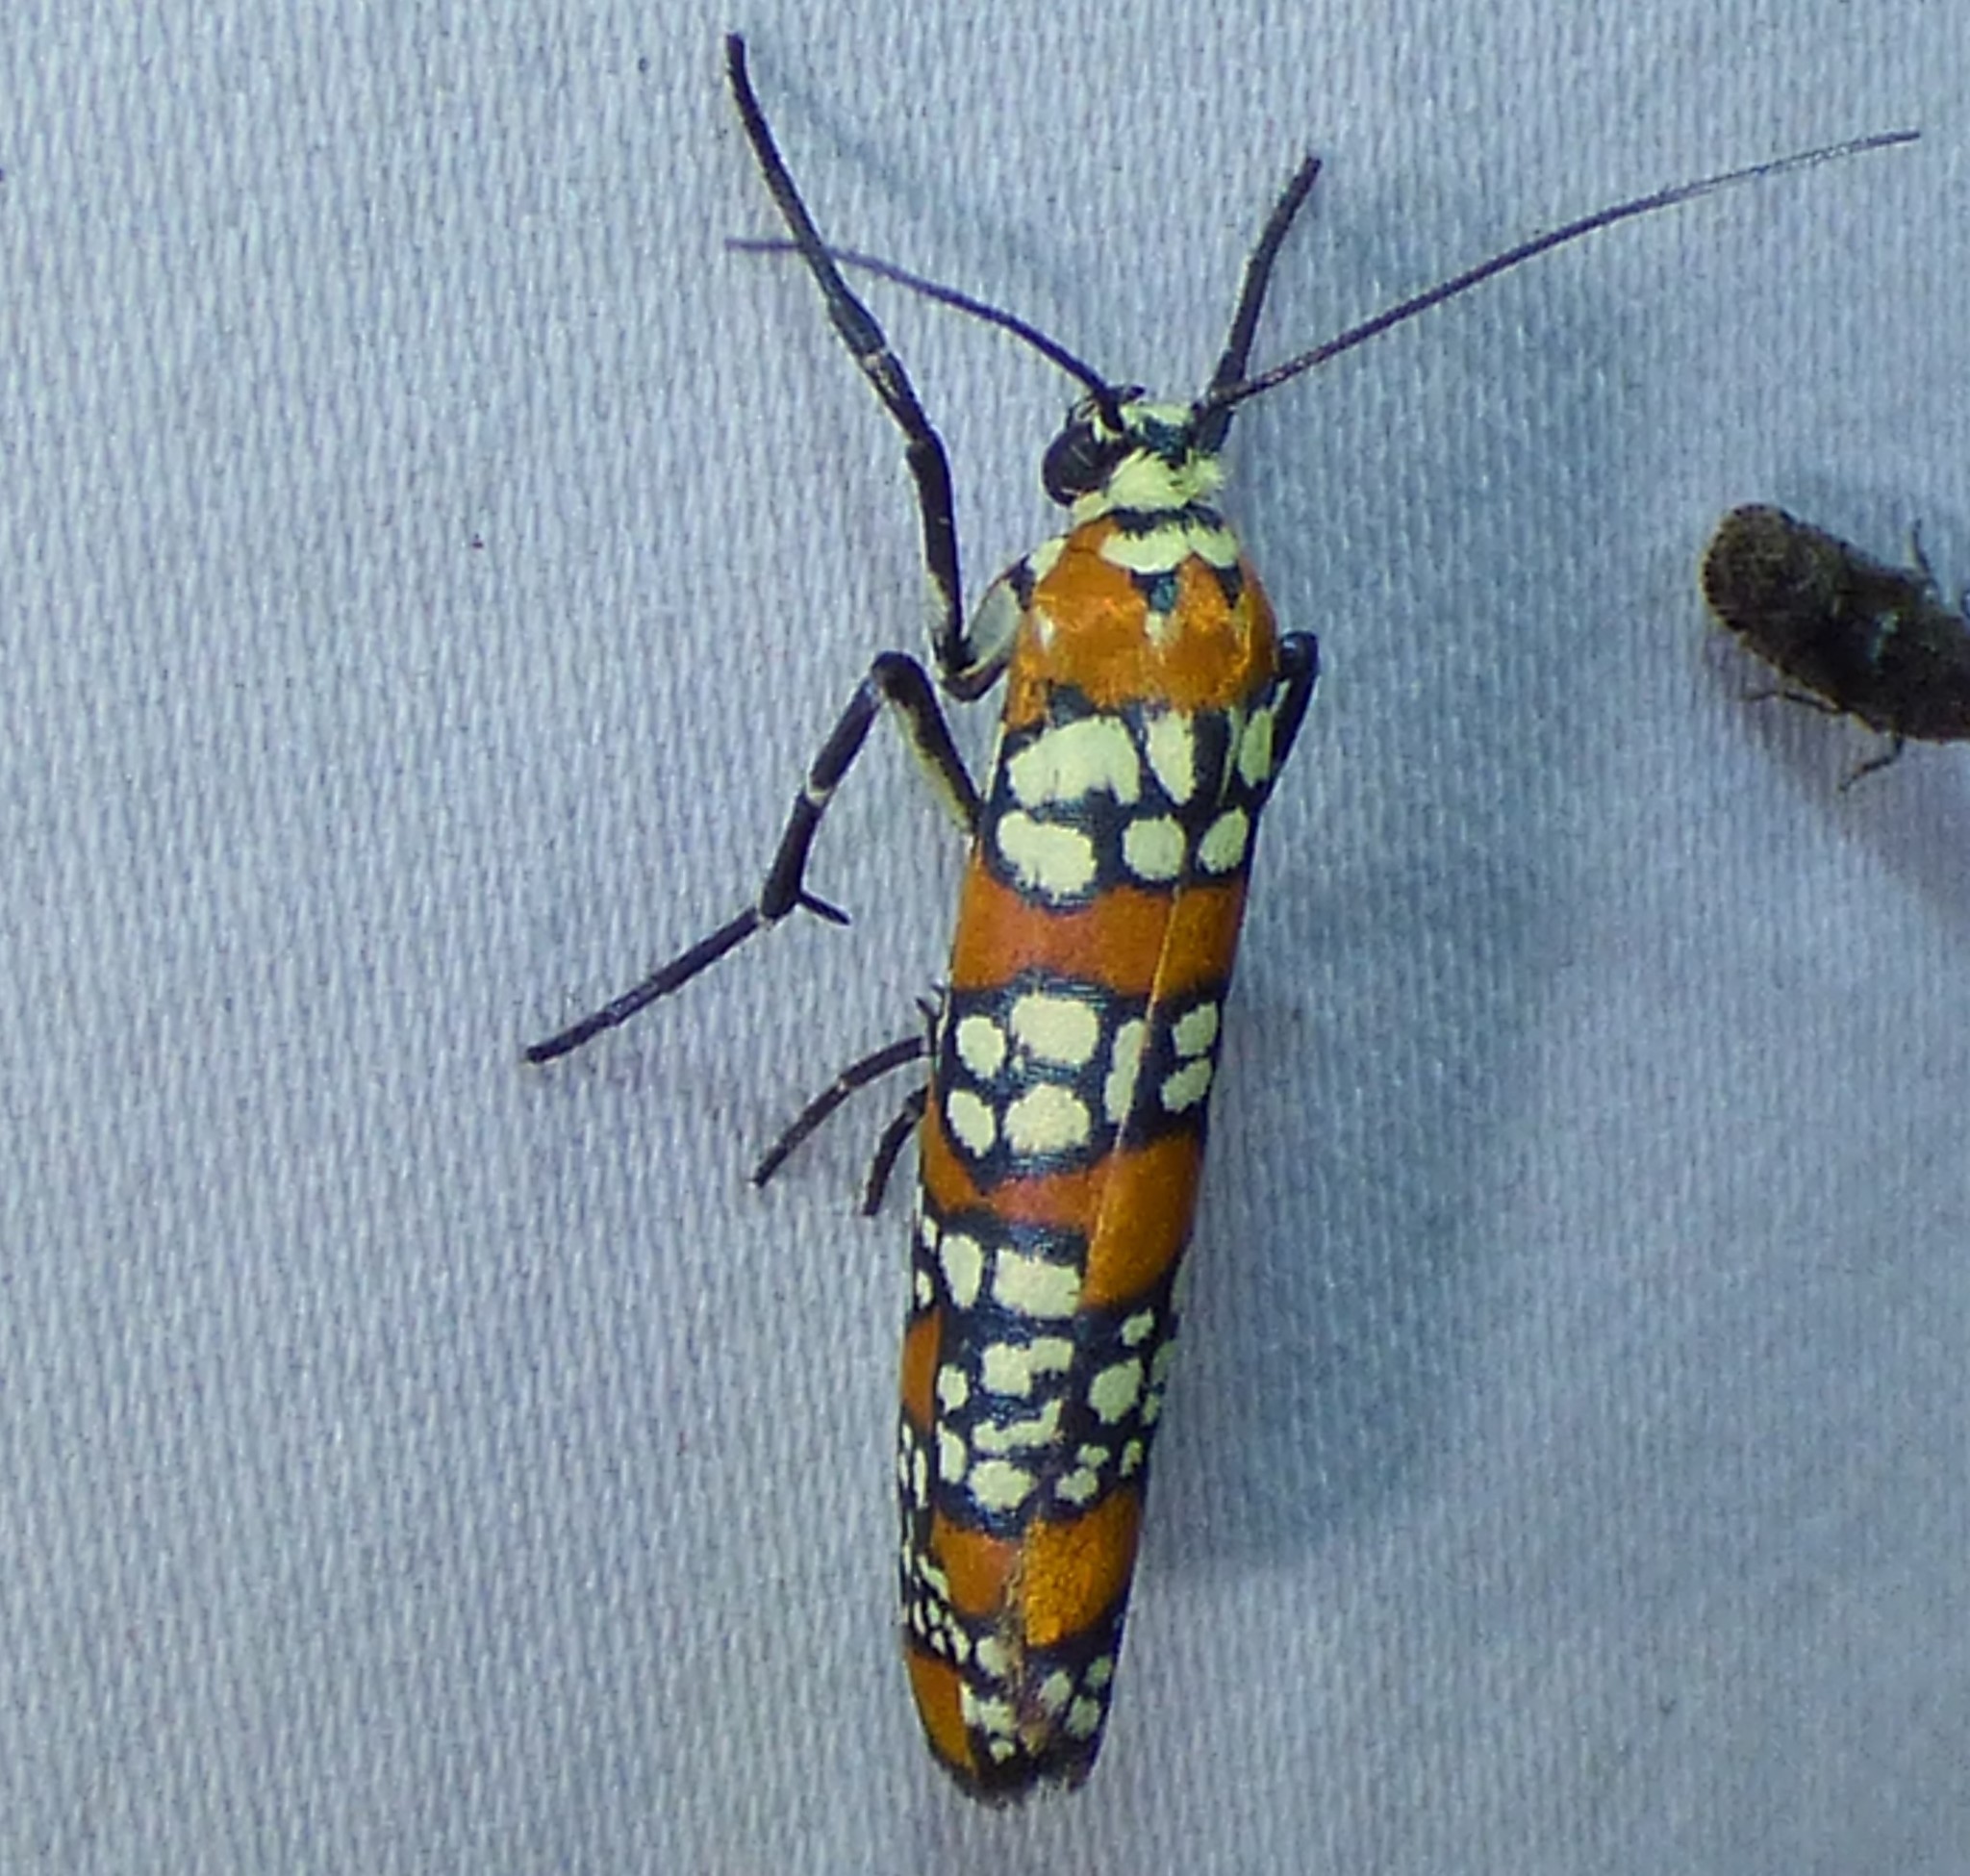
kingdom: Animalia
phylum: Arthropoda
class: Insecta
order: Lepidoptera
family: Attevidae
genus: Atteva
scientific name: Atteva punctella
